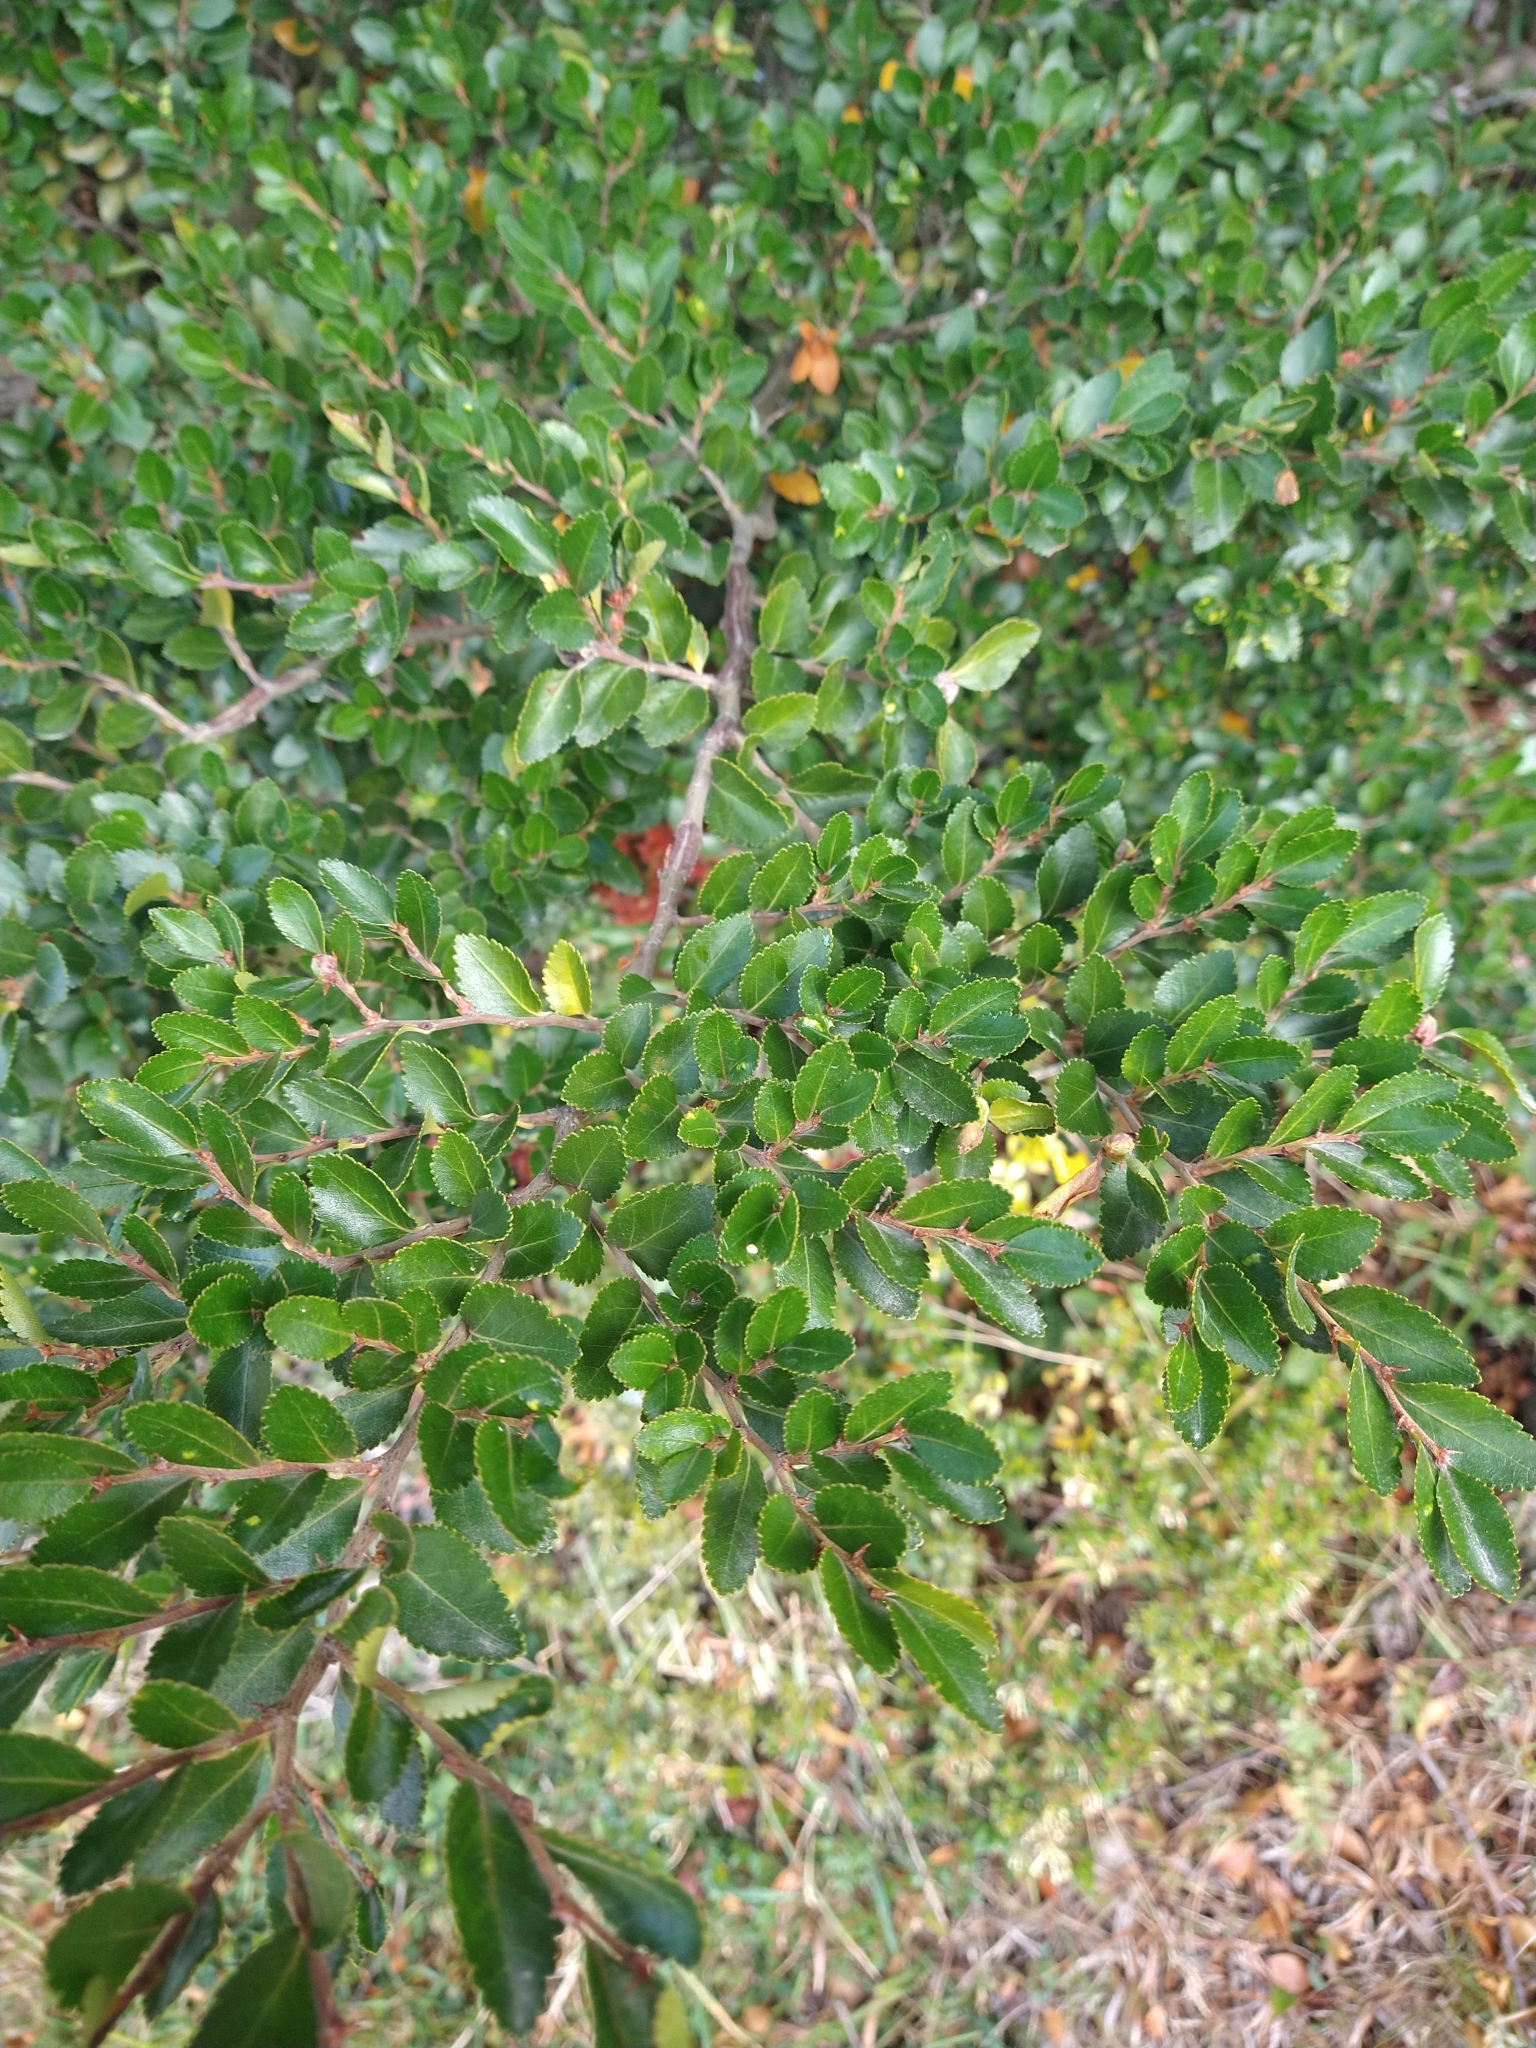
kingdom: Plantae
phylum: Tracheophyta
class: Magnoliopsida
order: Fagales
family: Nothofagaceae
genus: Nothofagus
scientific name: Nothofagus betuloides
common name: Magellan's beech
